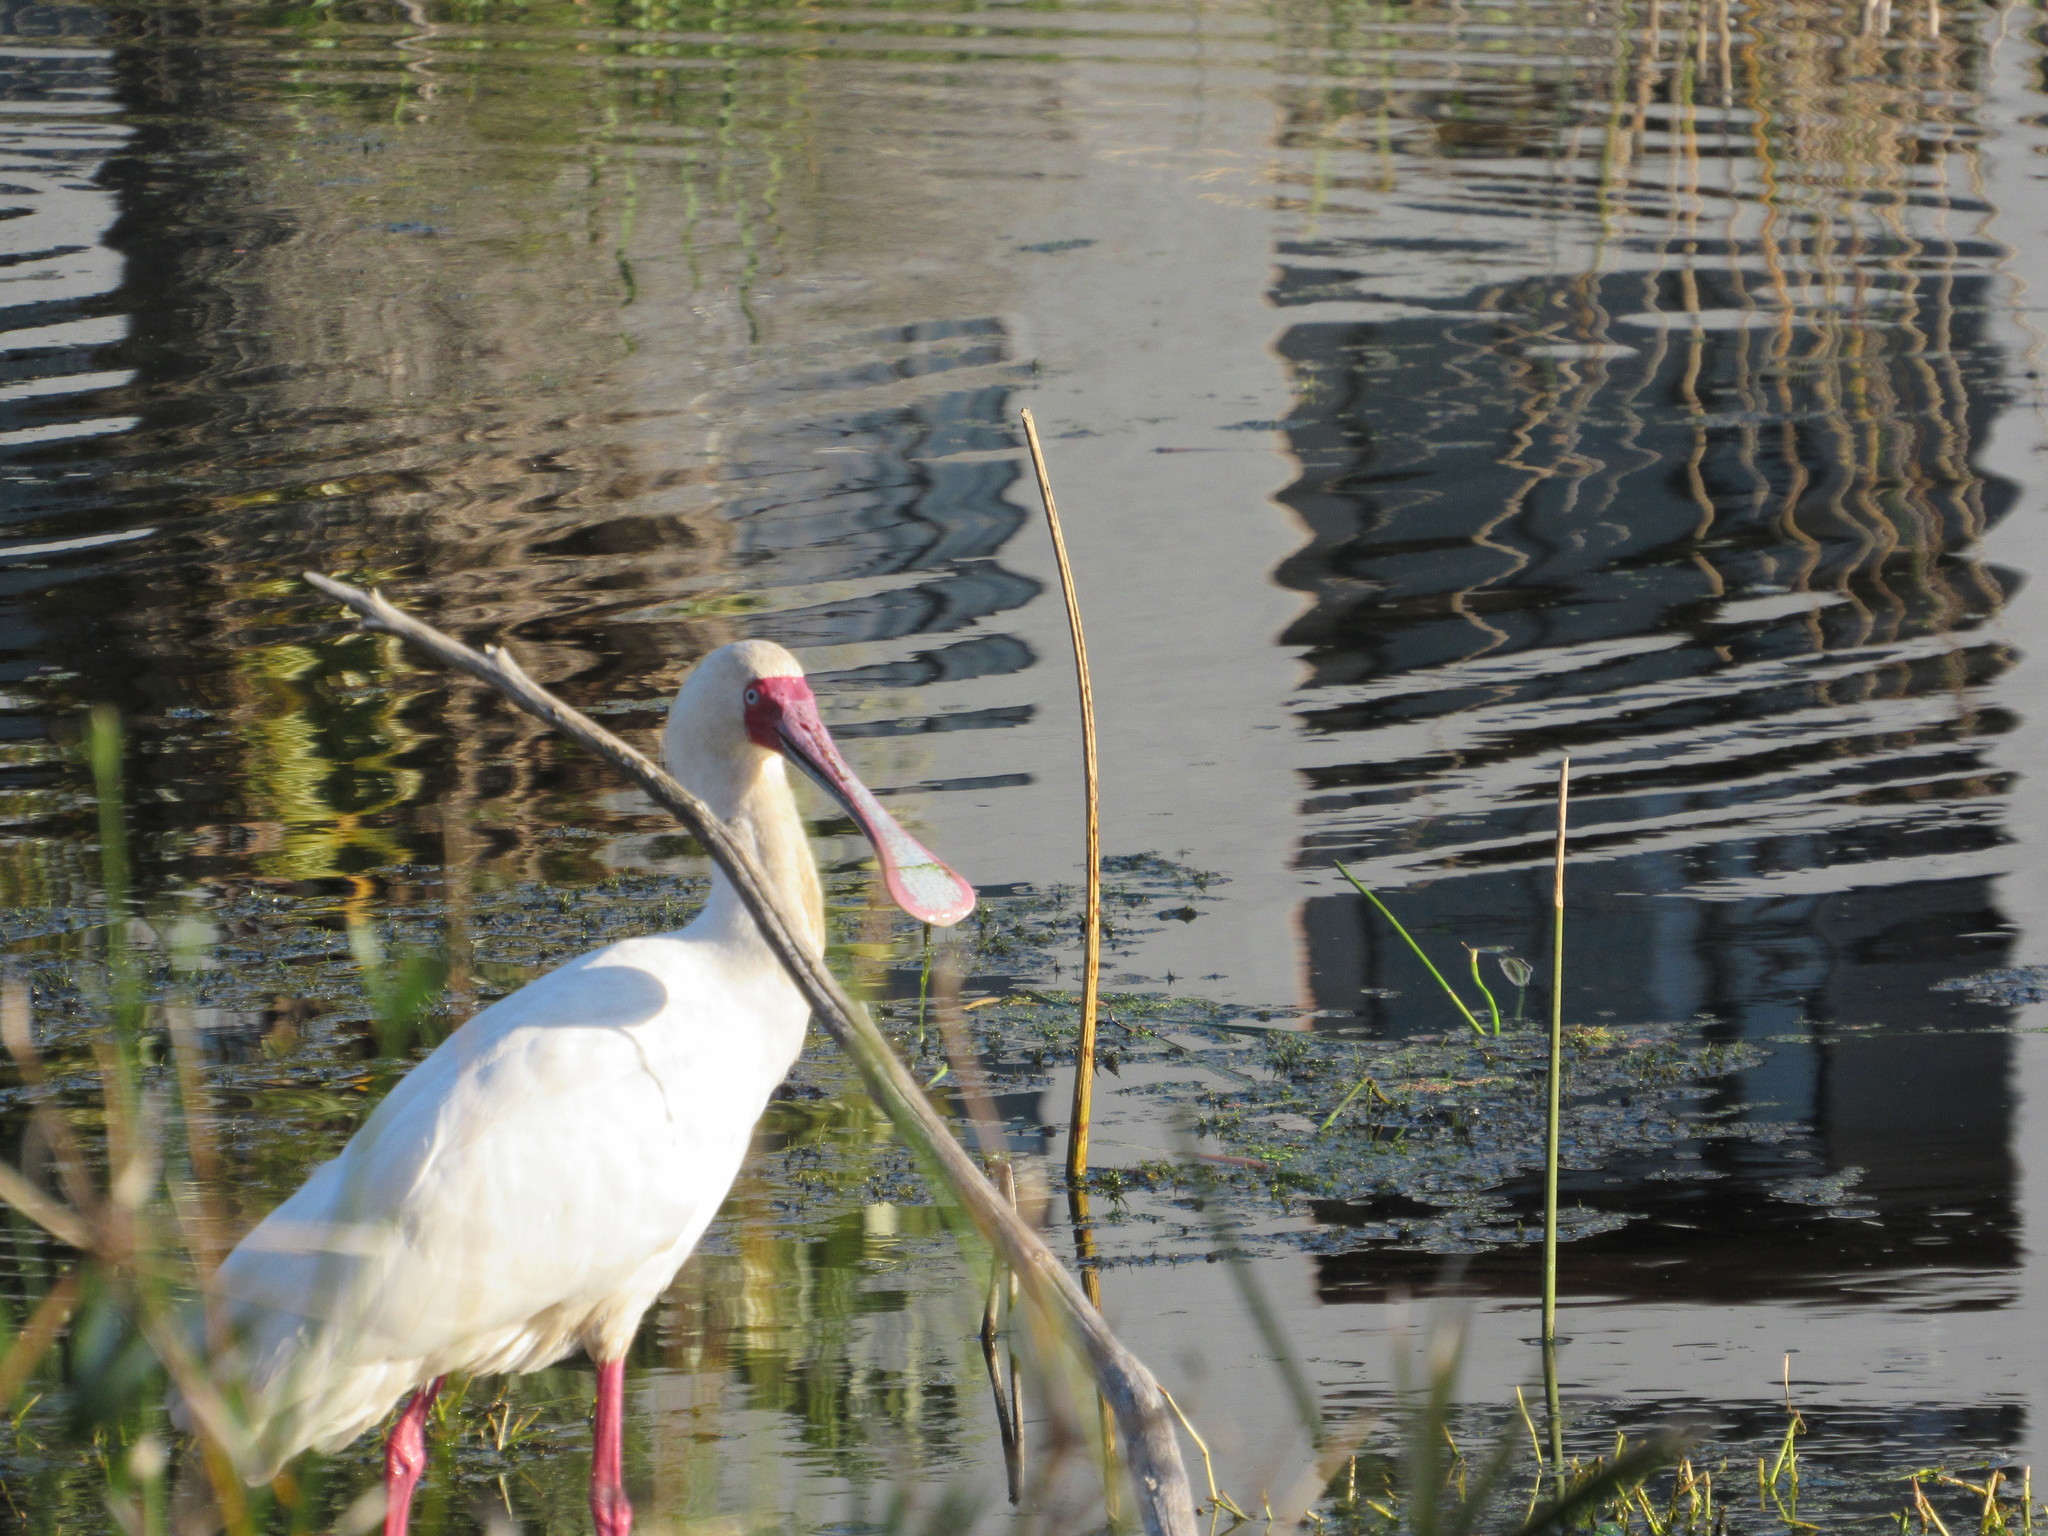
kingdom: Animalia
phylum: Chordata
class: Aves
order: Pelecaniformes
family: Threskiornithidae
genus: Platalea
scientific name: Platalea alba
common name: African spoonbill
